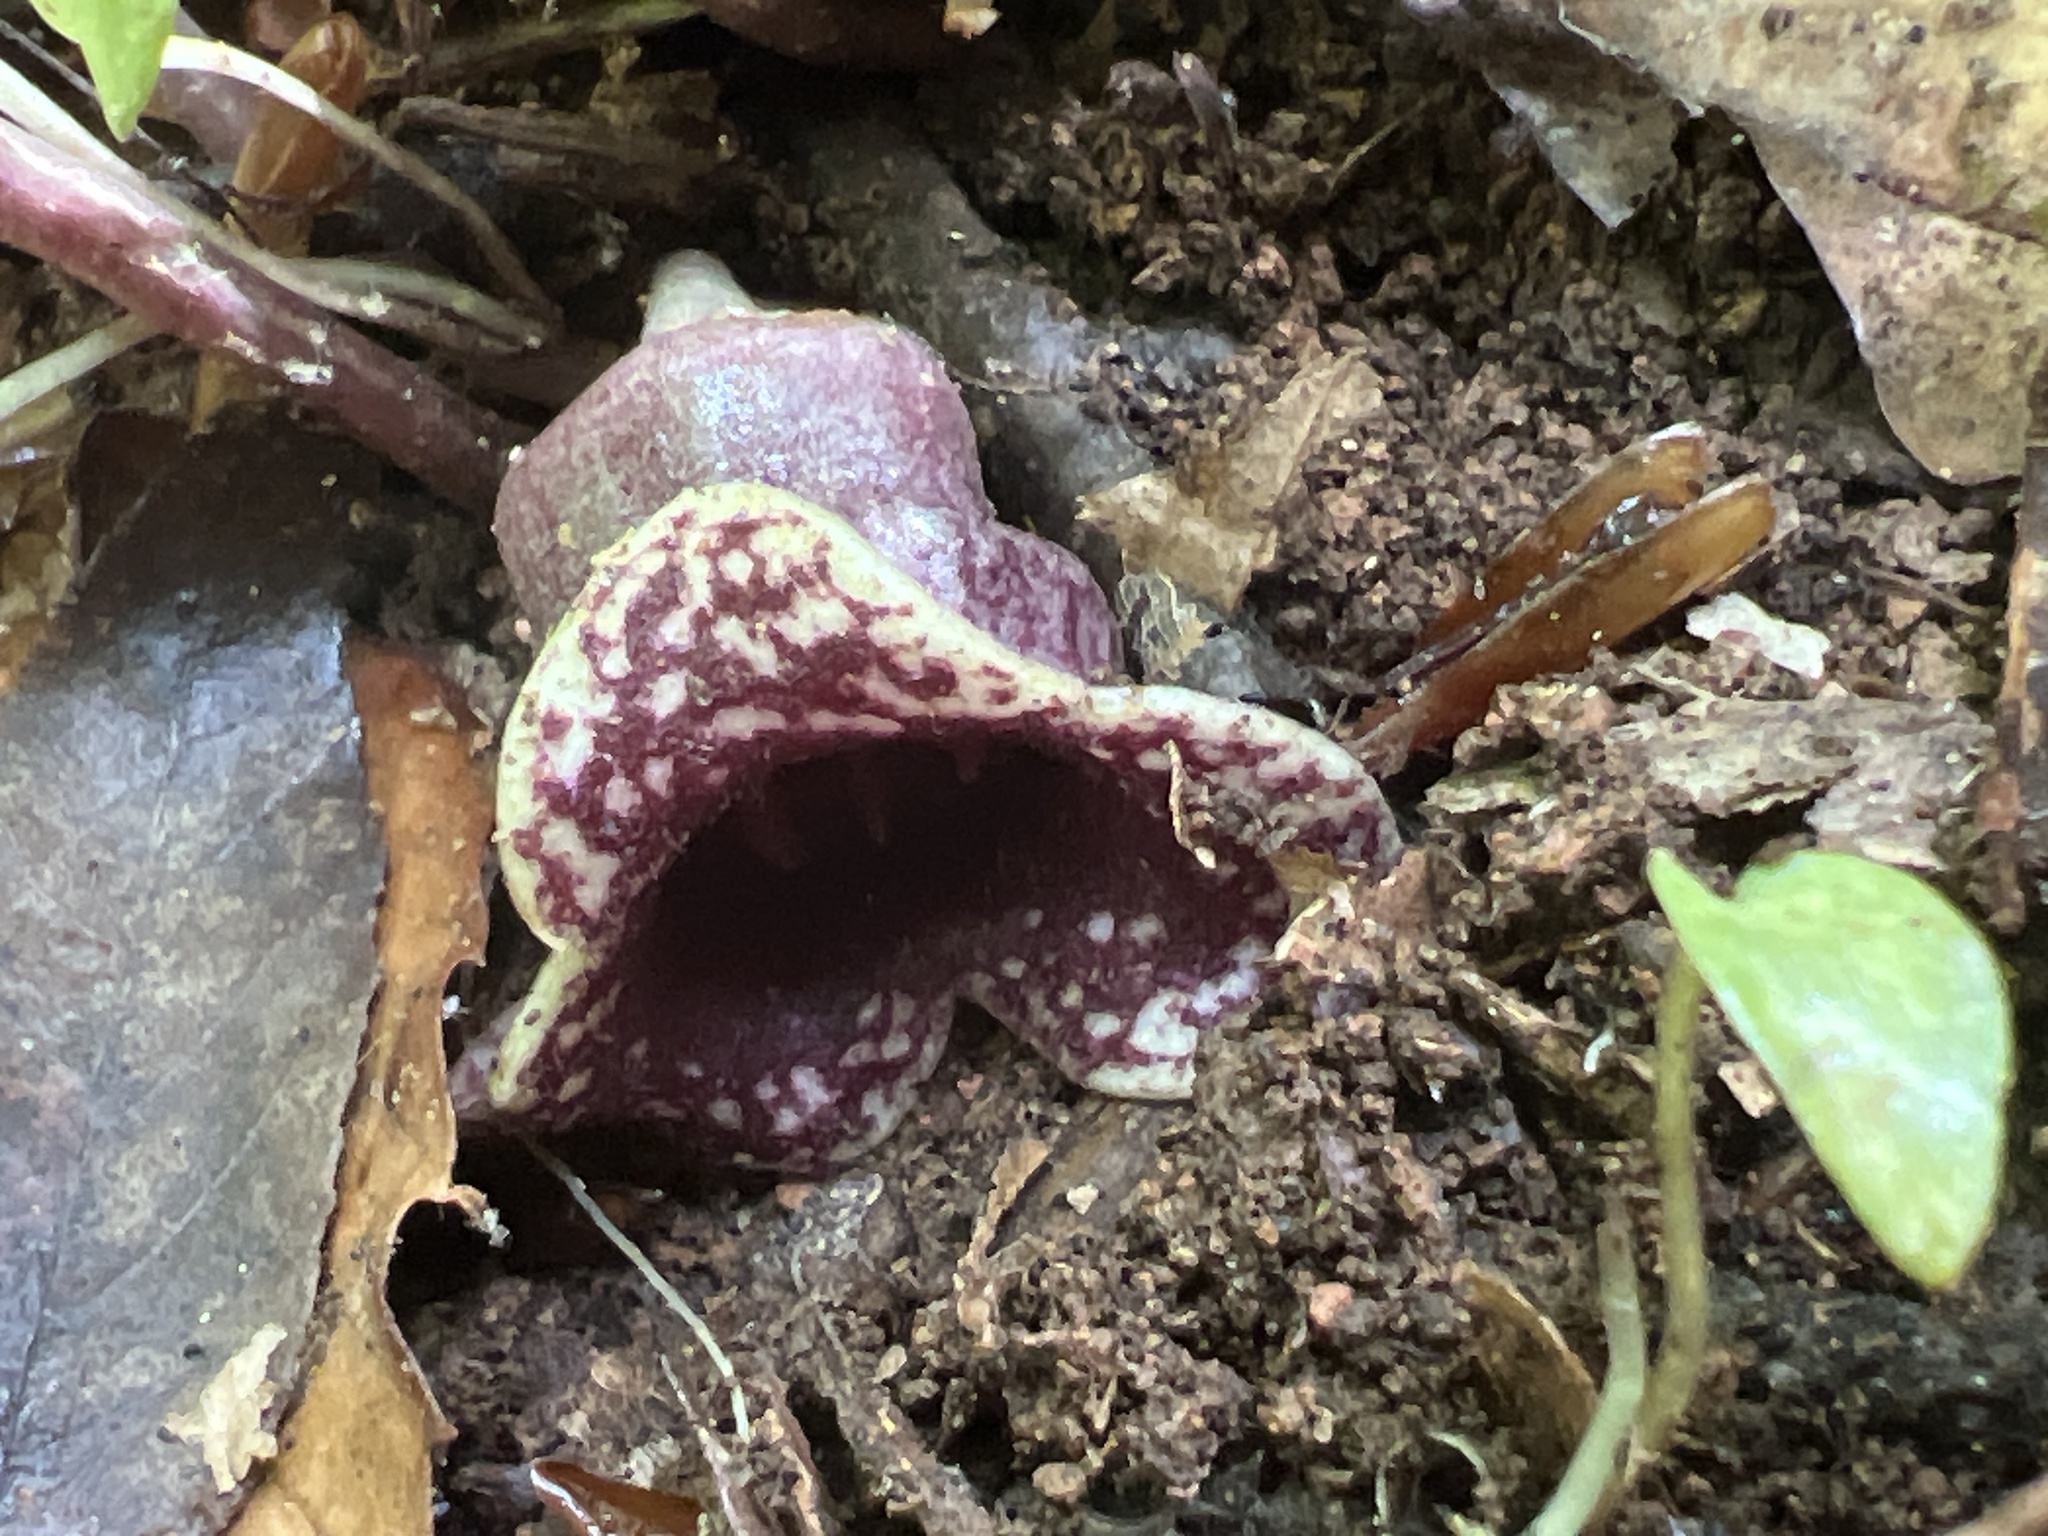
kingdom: Plantae
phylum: Tracheophyta
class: Magnoliopsida
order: Piperales
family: Aristolochiaceae
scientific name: Aristolochiaceae
